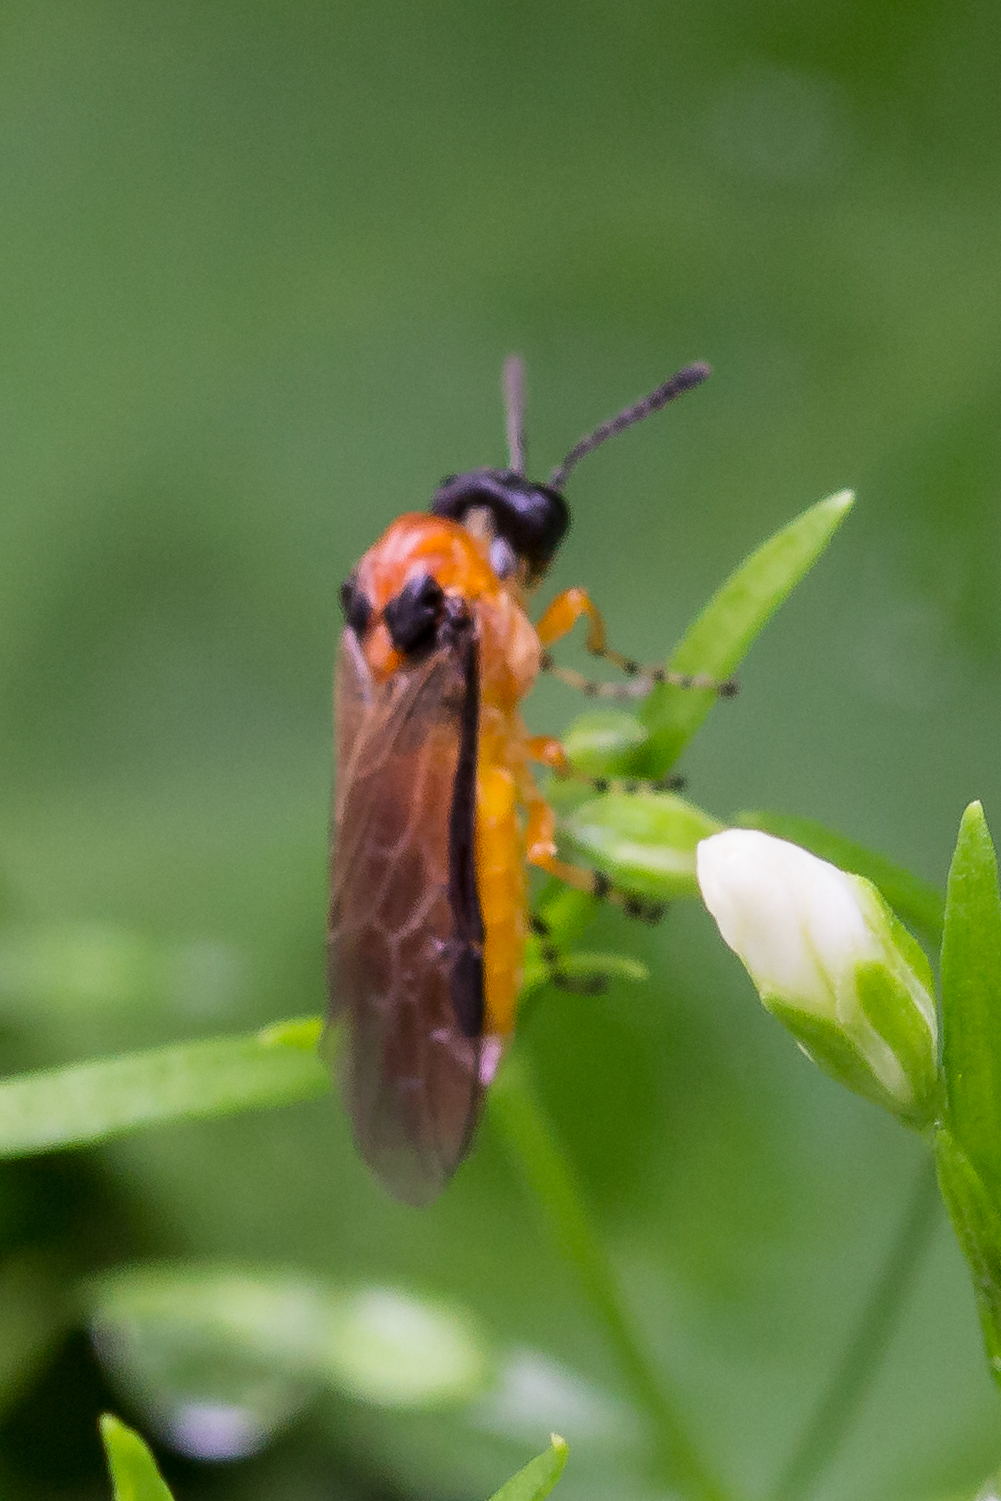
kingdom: Animalia
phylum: Arthropoda
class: Insecta
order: Hymenoptera
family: Tenthredinidae
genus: Athalia
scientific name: Athalia rosae
